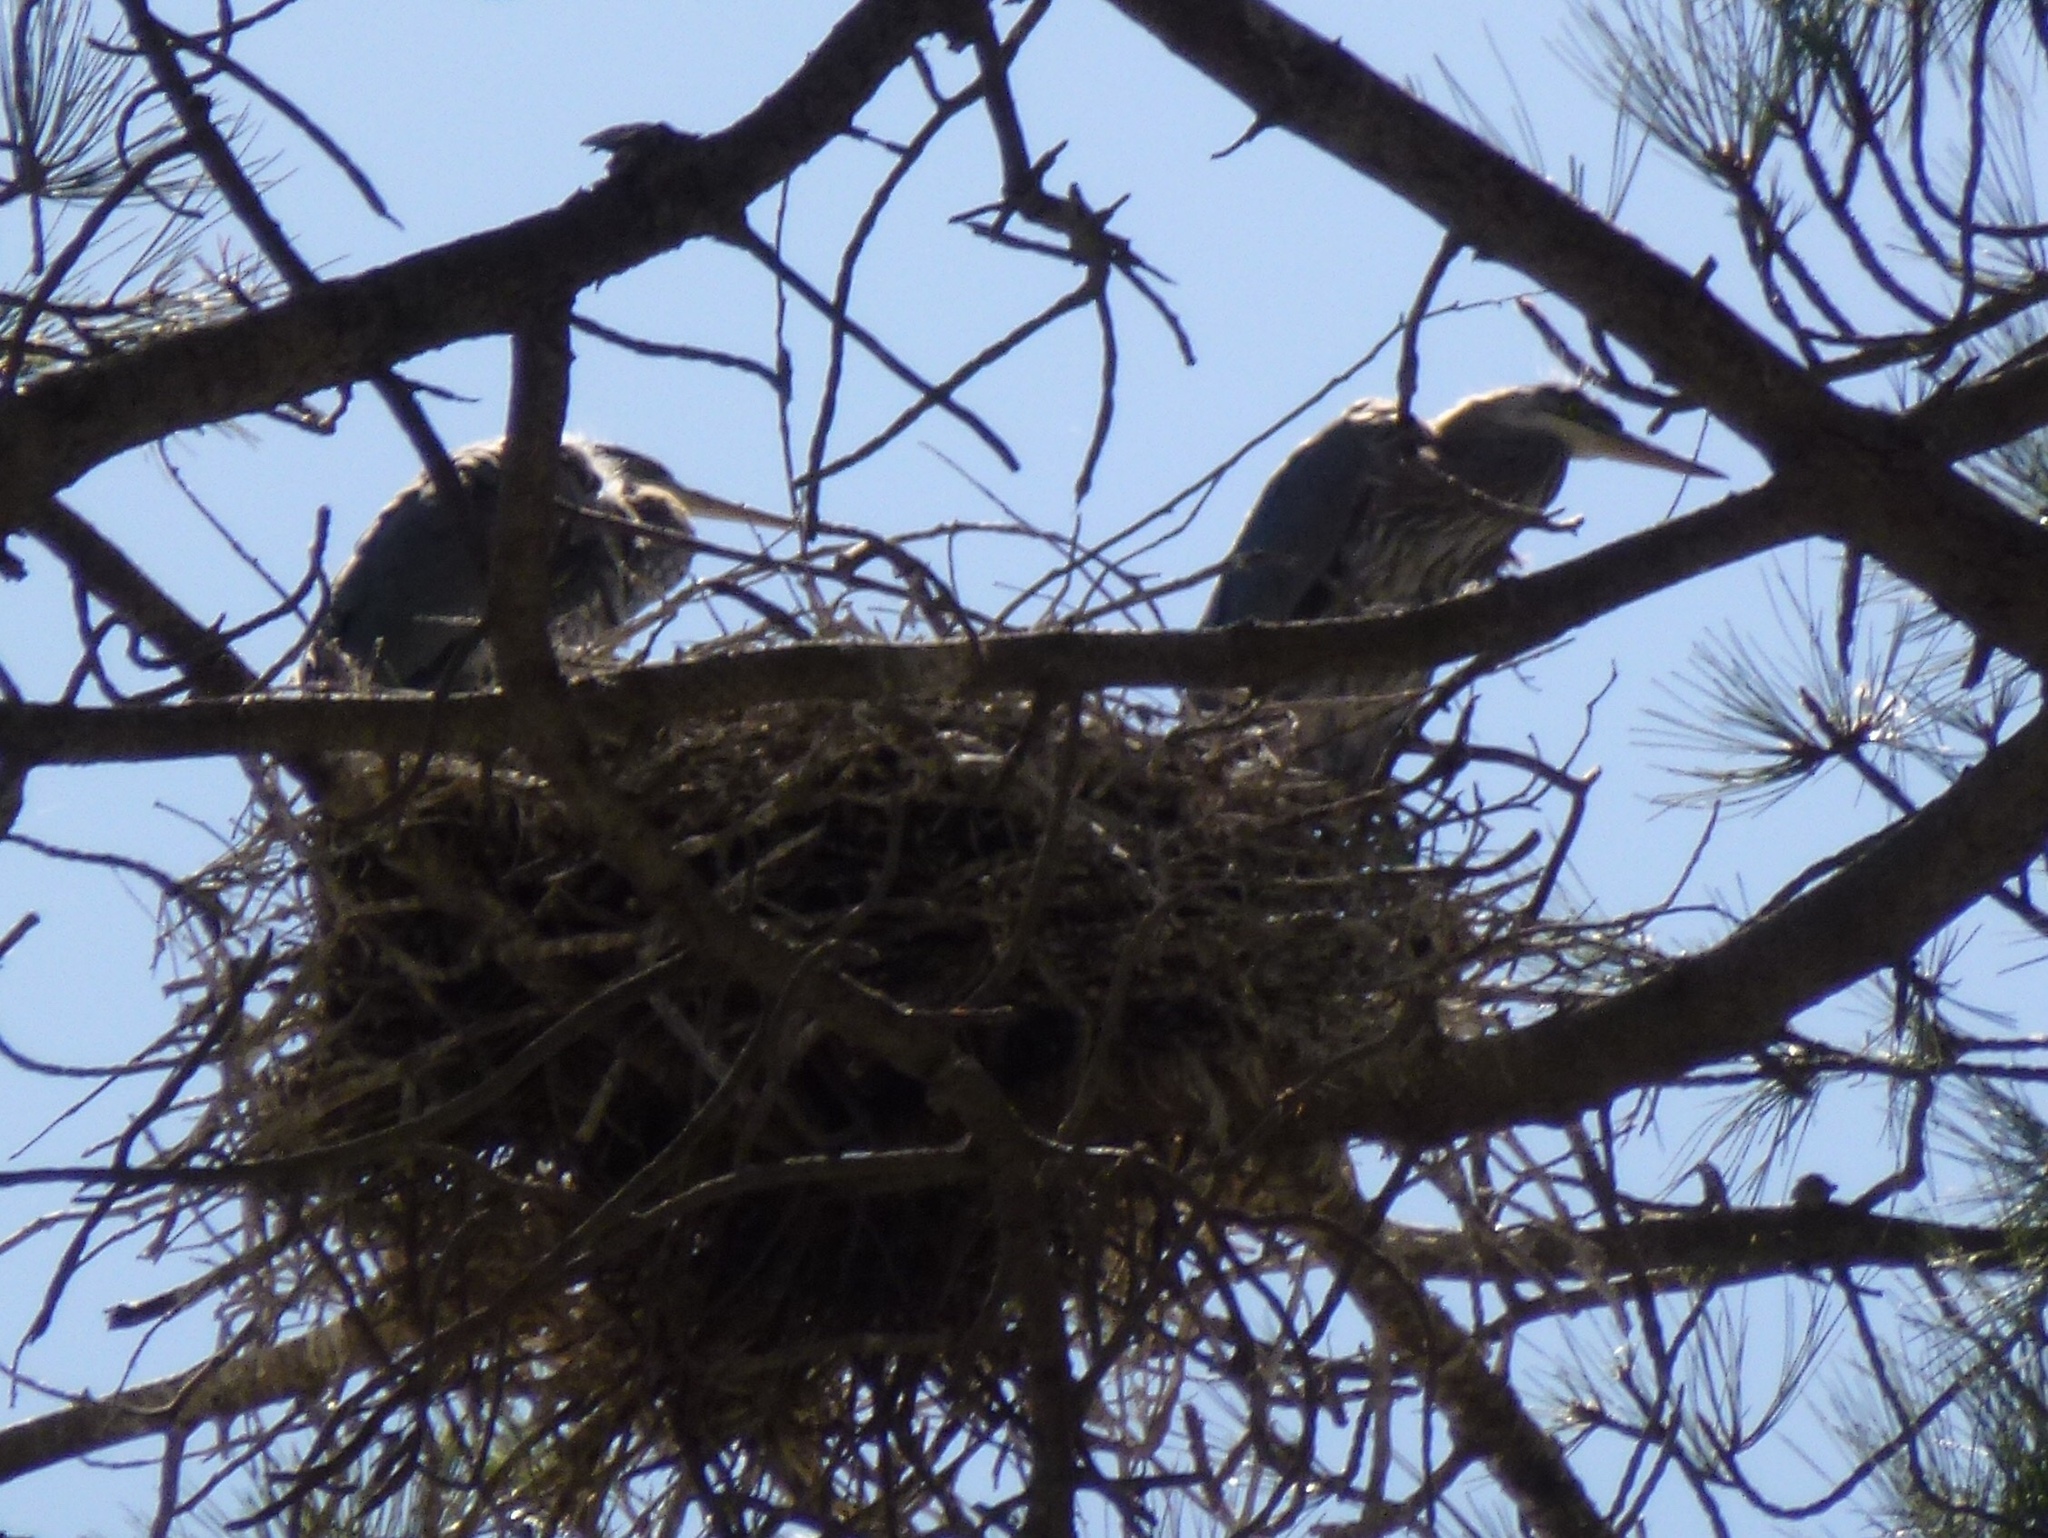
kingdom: Animalia
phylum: Chordata
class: Aves
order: Pelecaniformes
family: Ardeidae
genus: Ardea
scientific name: Ardea herodias
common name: Great blue heron
